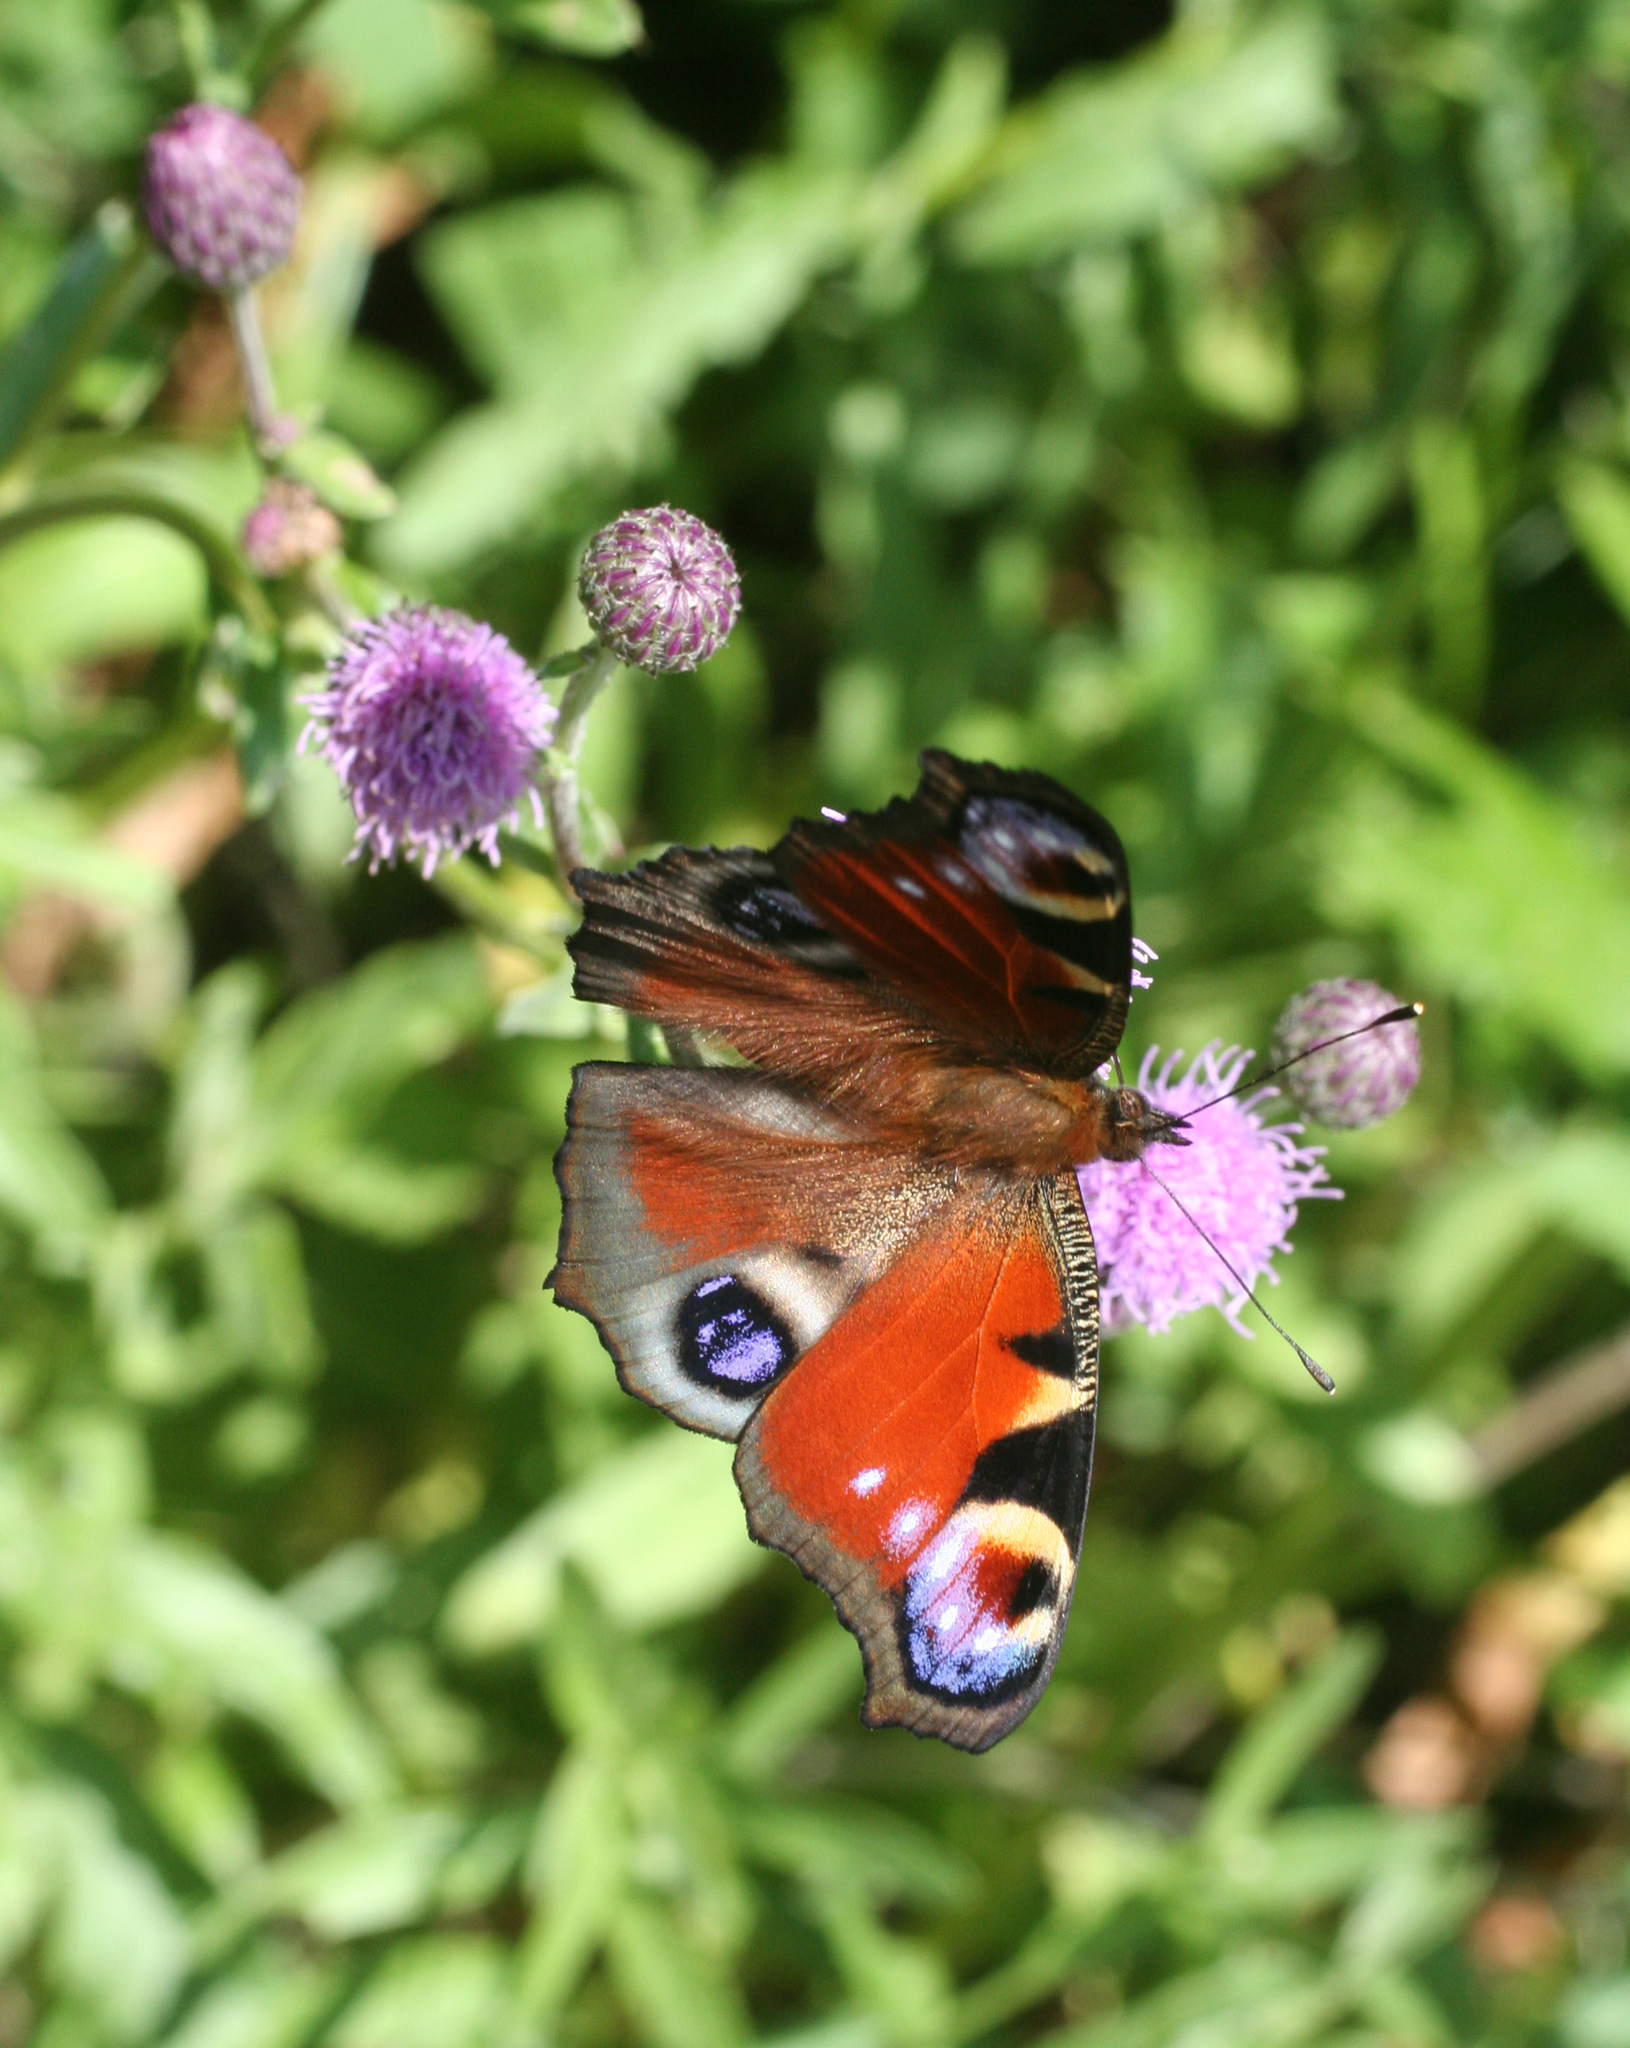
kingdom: Animalia
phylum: Arthropoda
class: Insecta
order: Lepidoptera
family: Nymphalidae
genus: Aglais
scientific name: Aglais io
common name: Peacock
